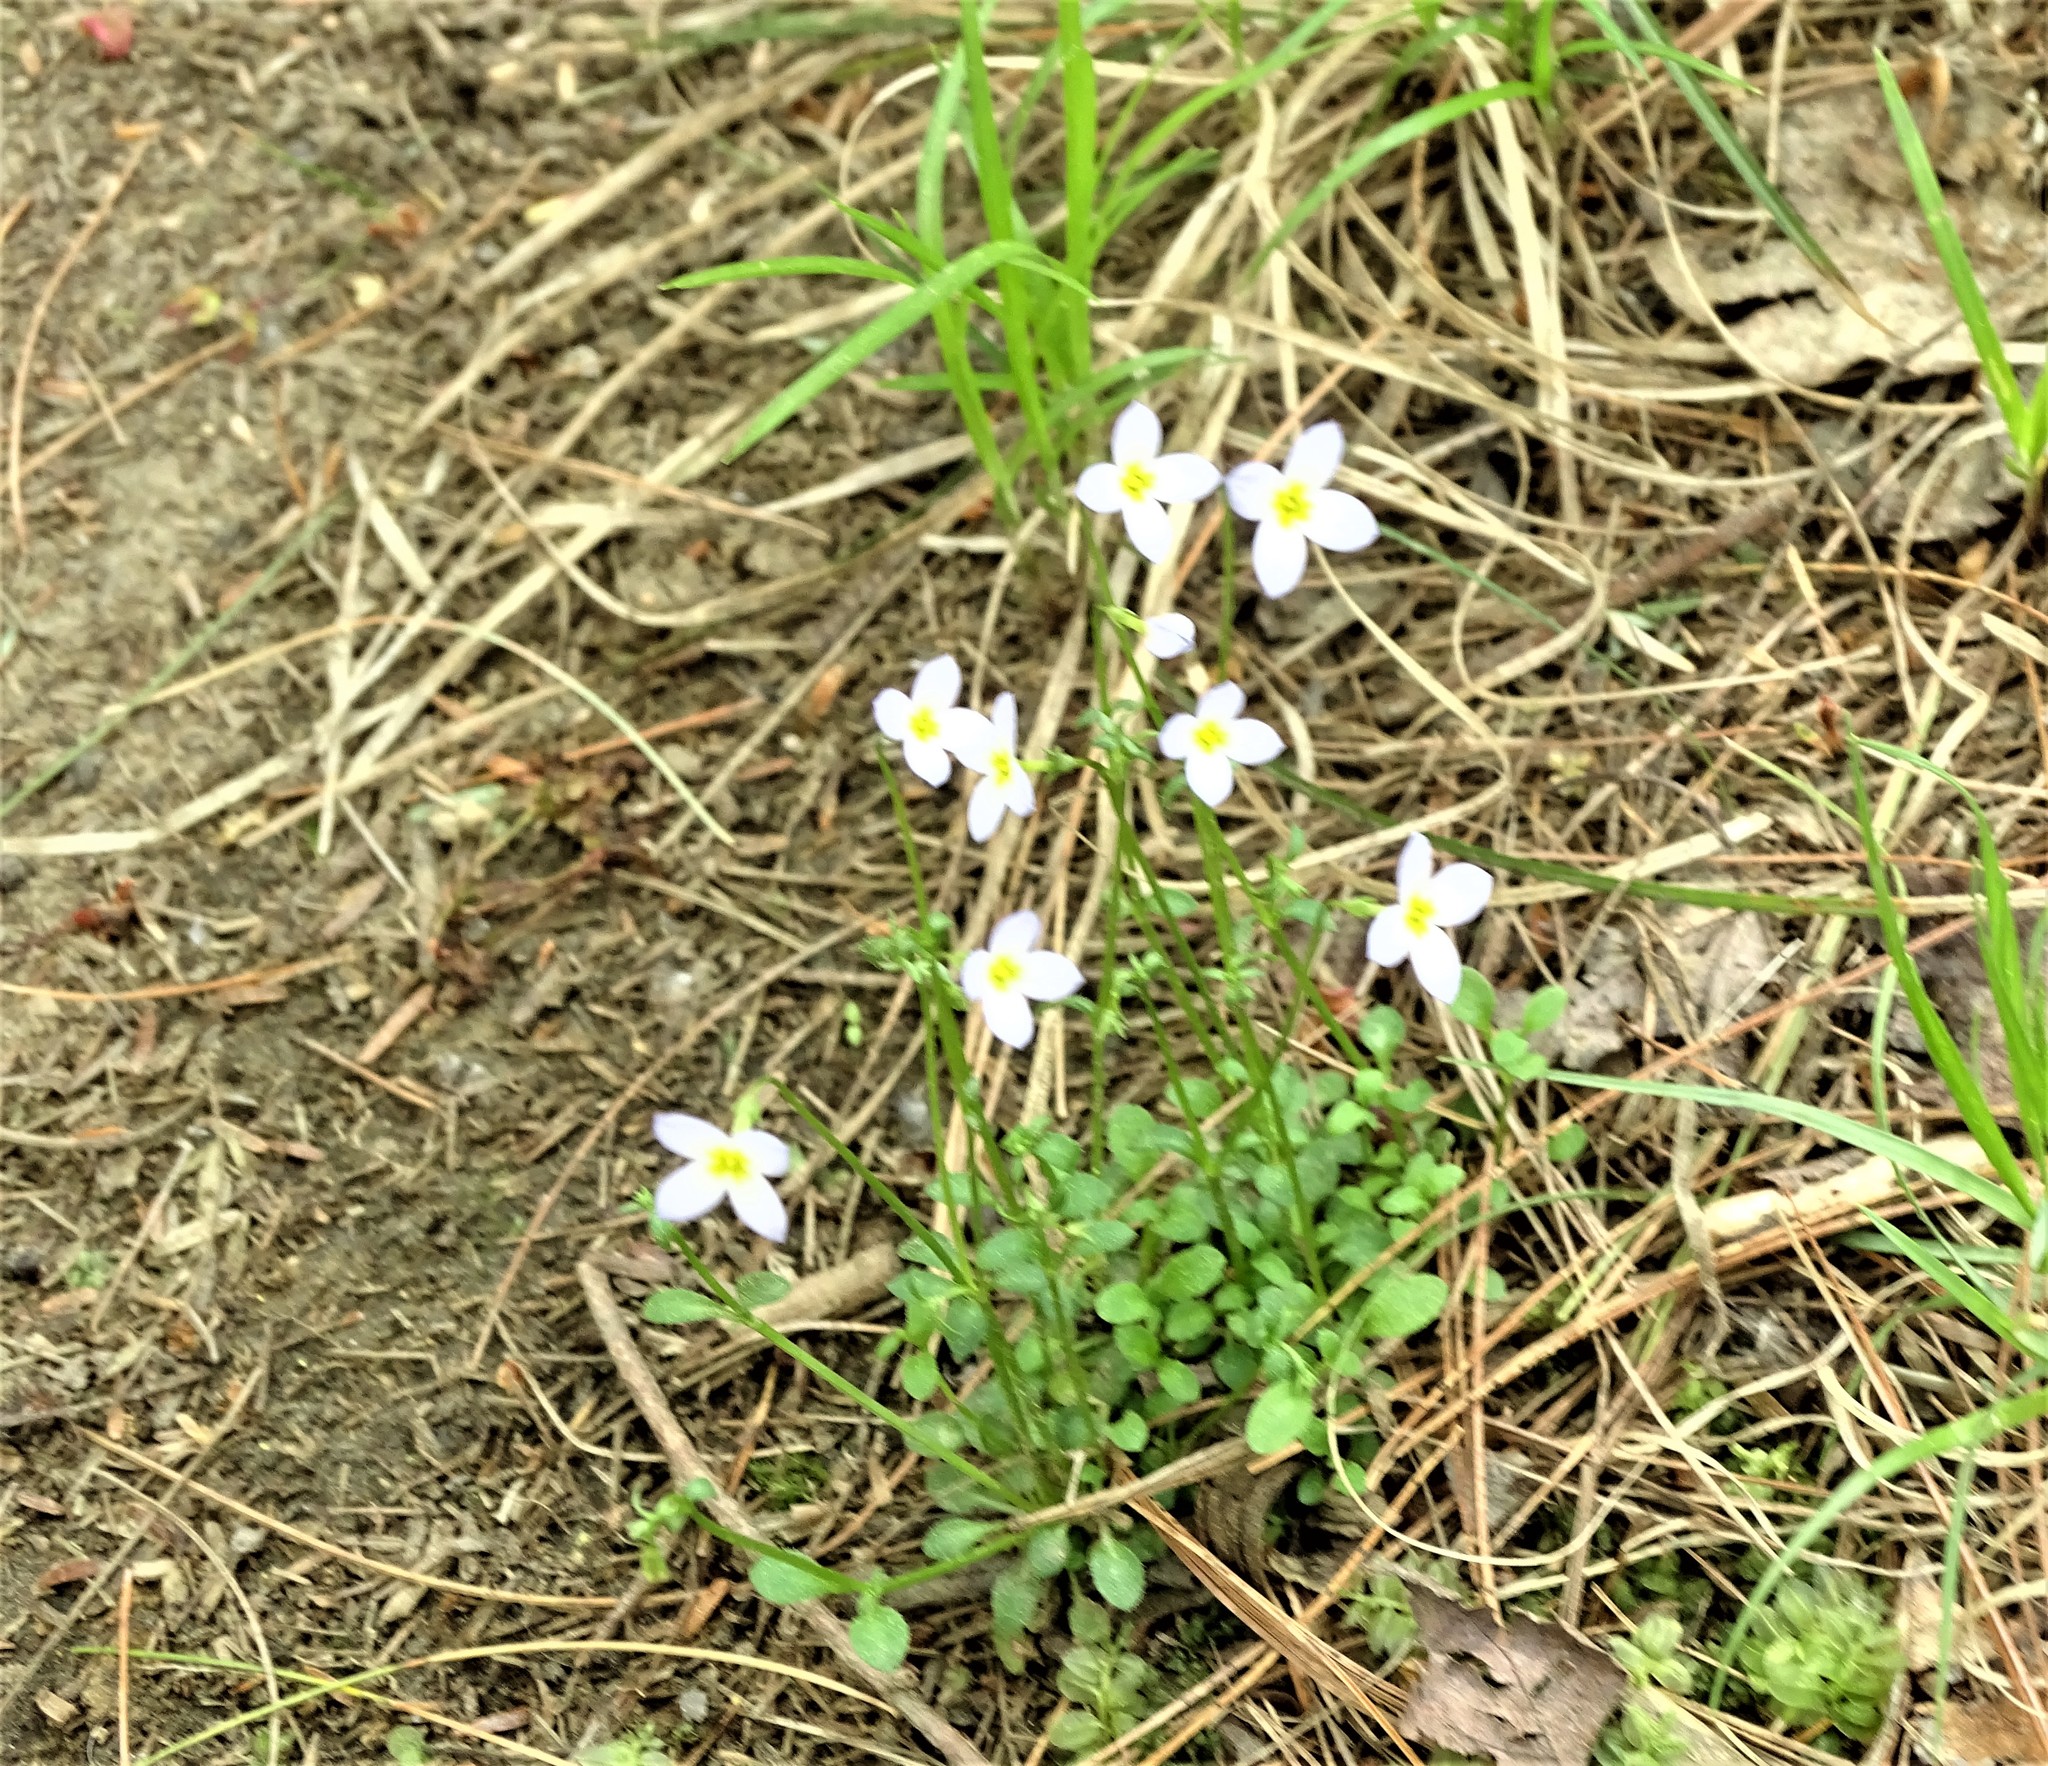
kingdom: Plantae
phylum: Tracheophyta
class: Magnoliopsida
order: Gentianales
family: Rubiaceae
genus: Houstonia
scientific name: Houstonia caerulea
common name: Bluets
